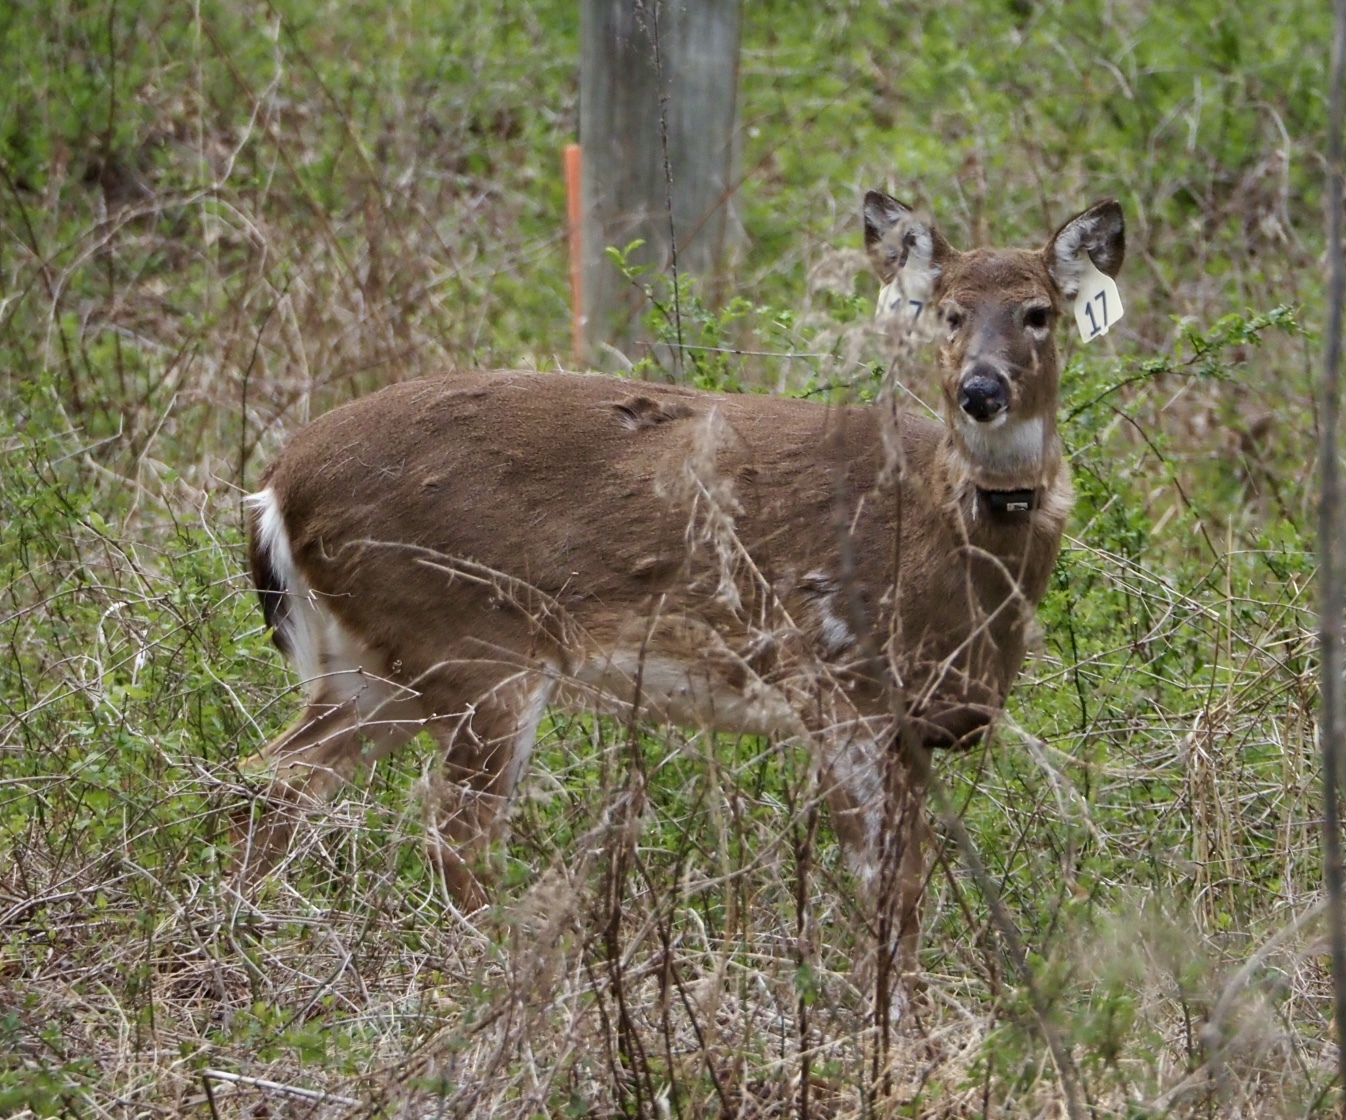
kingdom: Animalia
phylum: Chordata
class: Mammalia
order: Artiodactyla
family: Cervidae
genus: Odocoileus
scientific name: Odocoileus virginianus
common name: White-tailed deer
